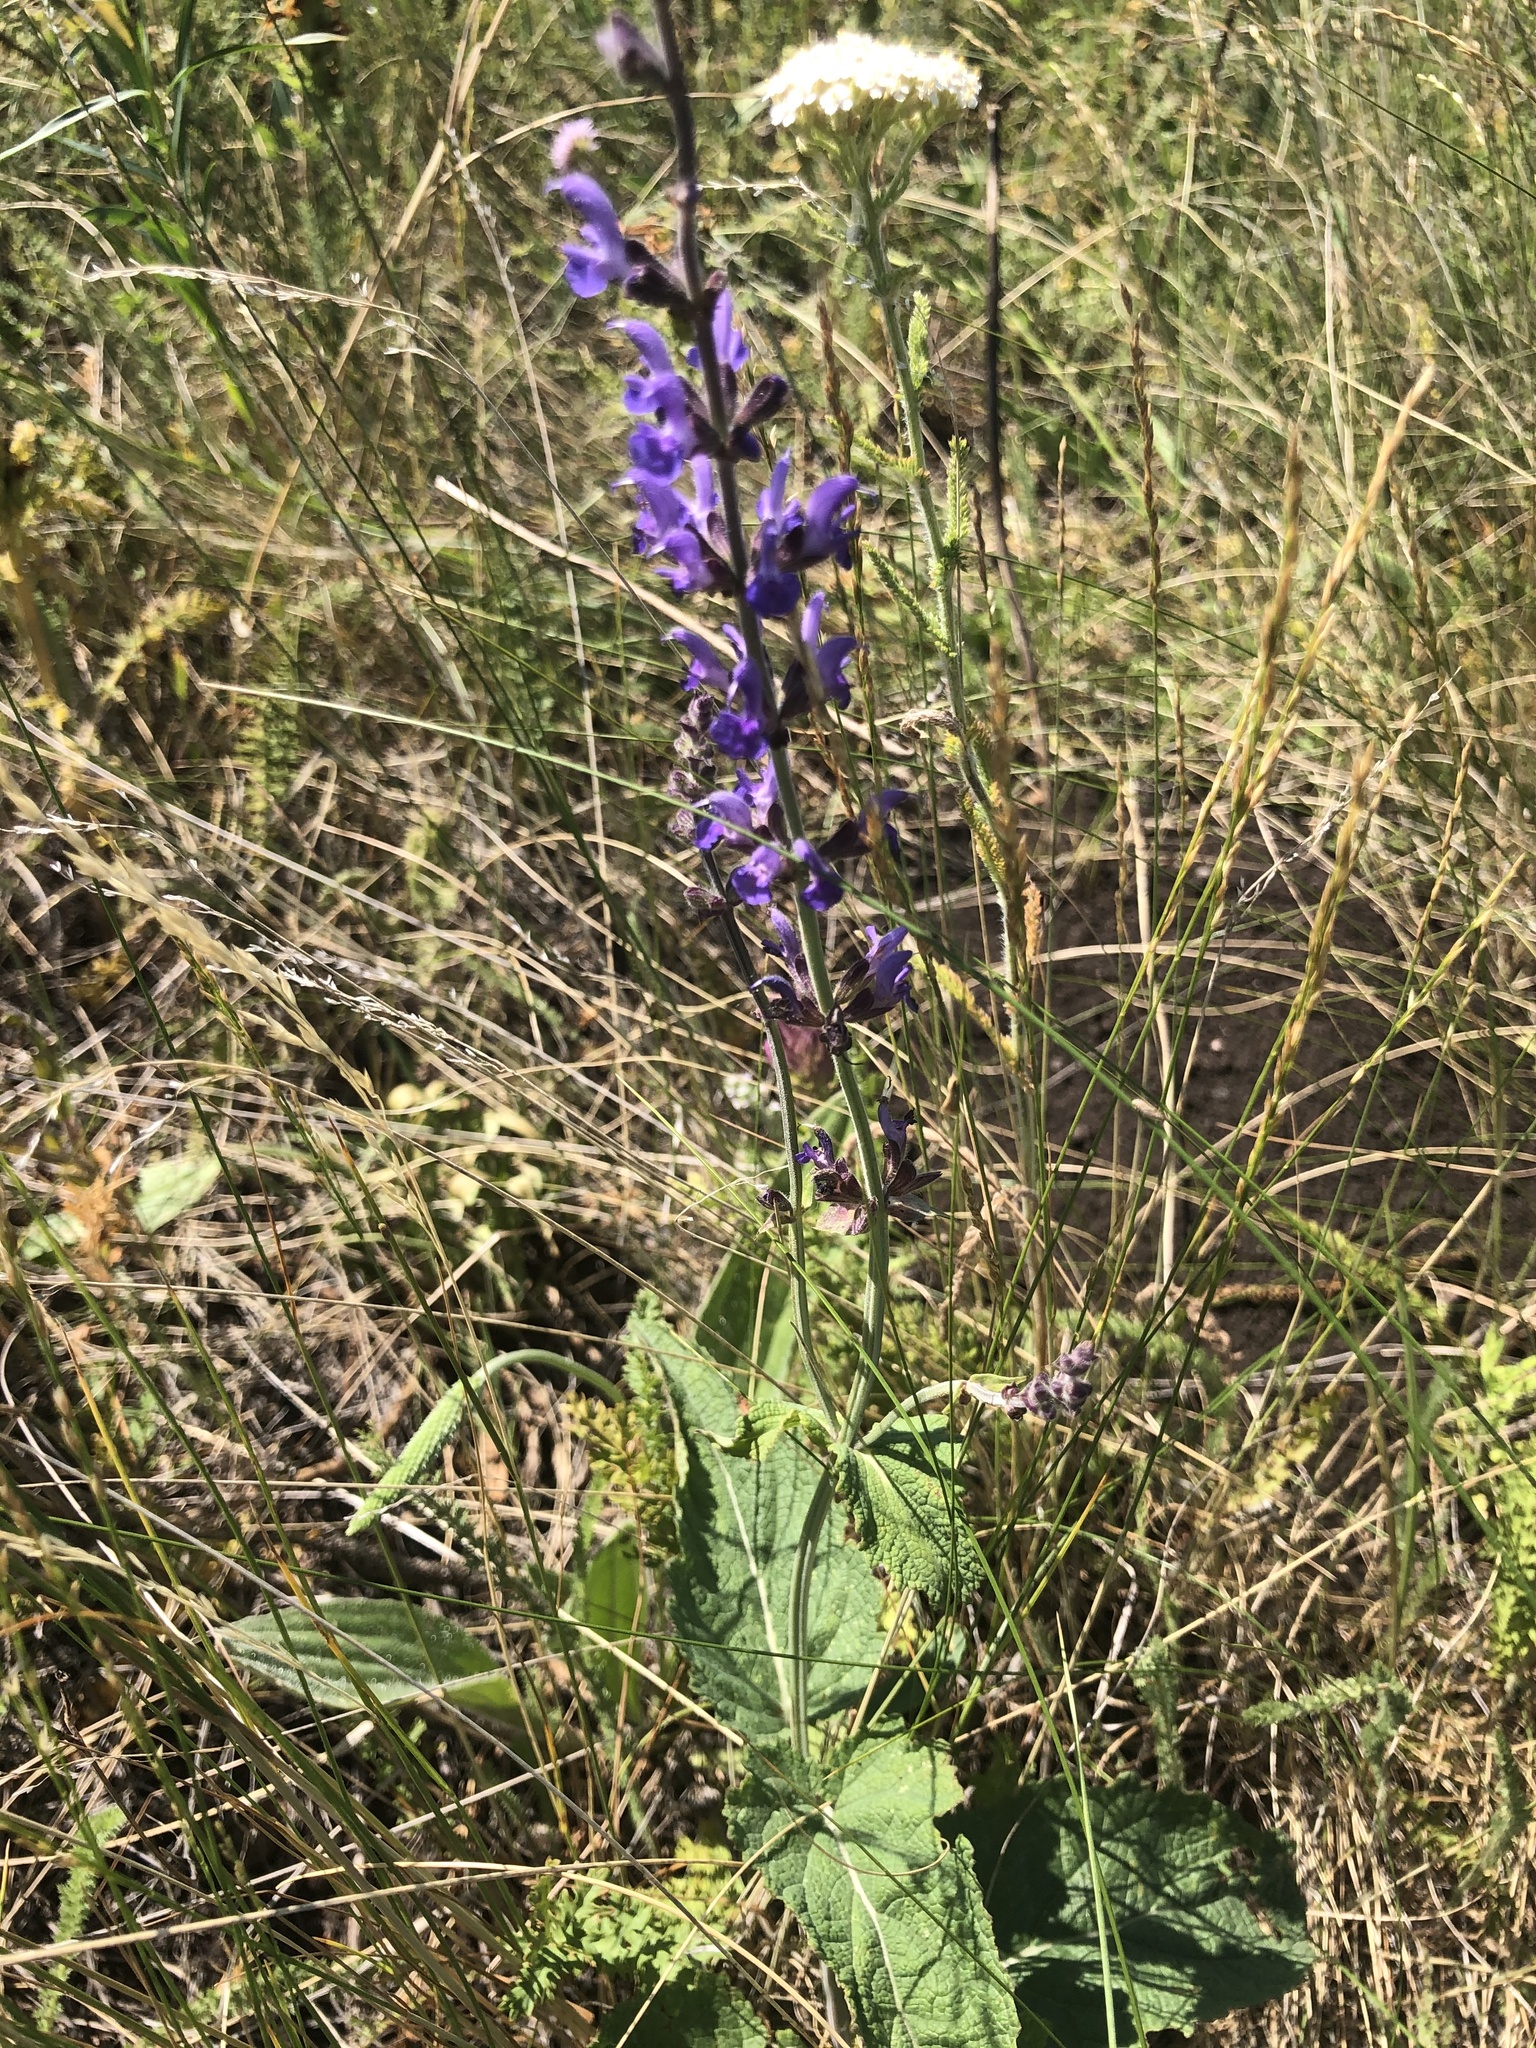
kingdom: Plantae
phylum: Tracheophyta
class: Magnoliopsida
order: Lamiales
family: Lamiaceae
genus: Salvia
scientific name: Salvia dumetorum
